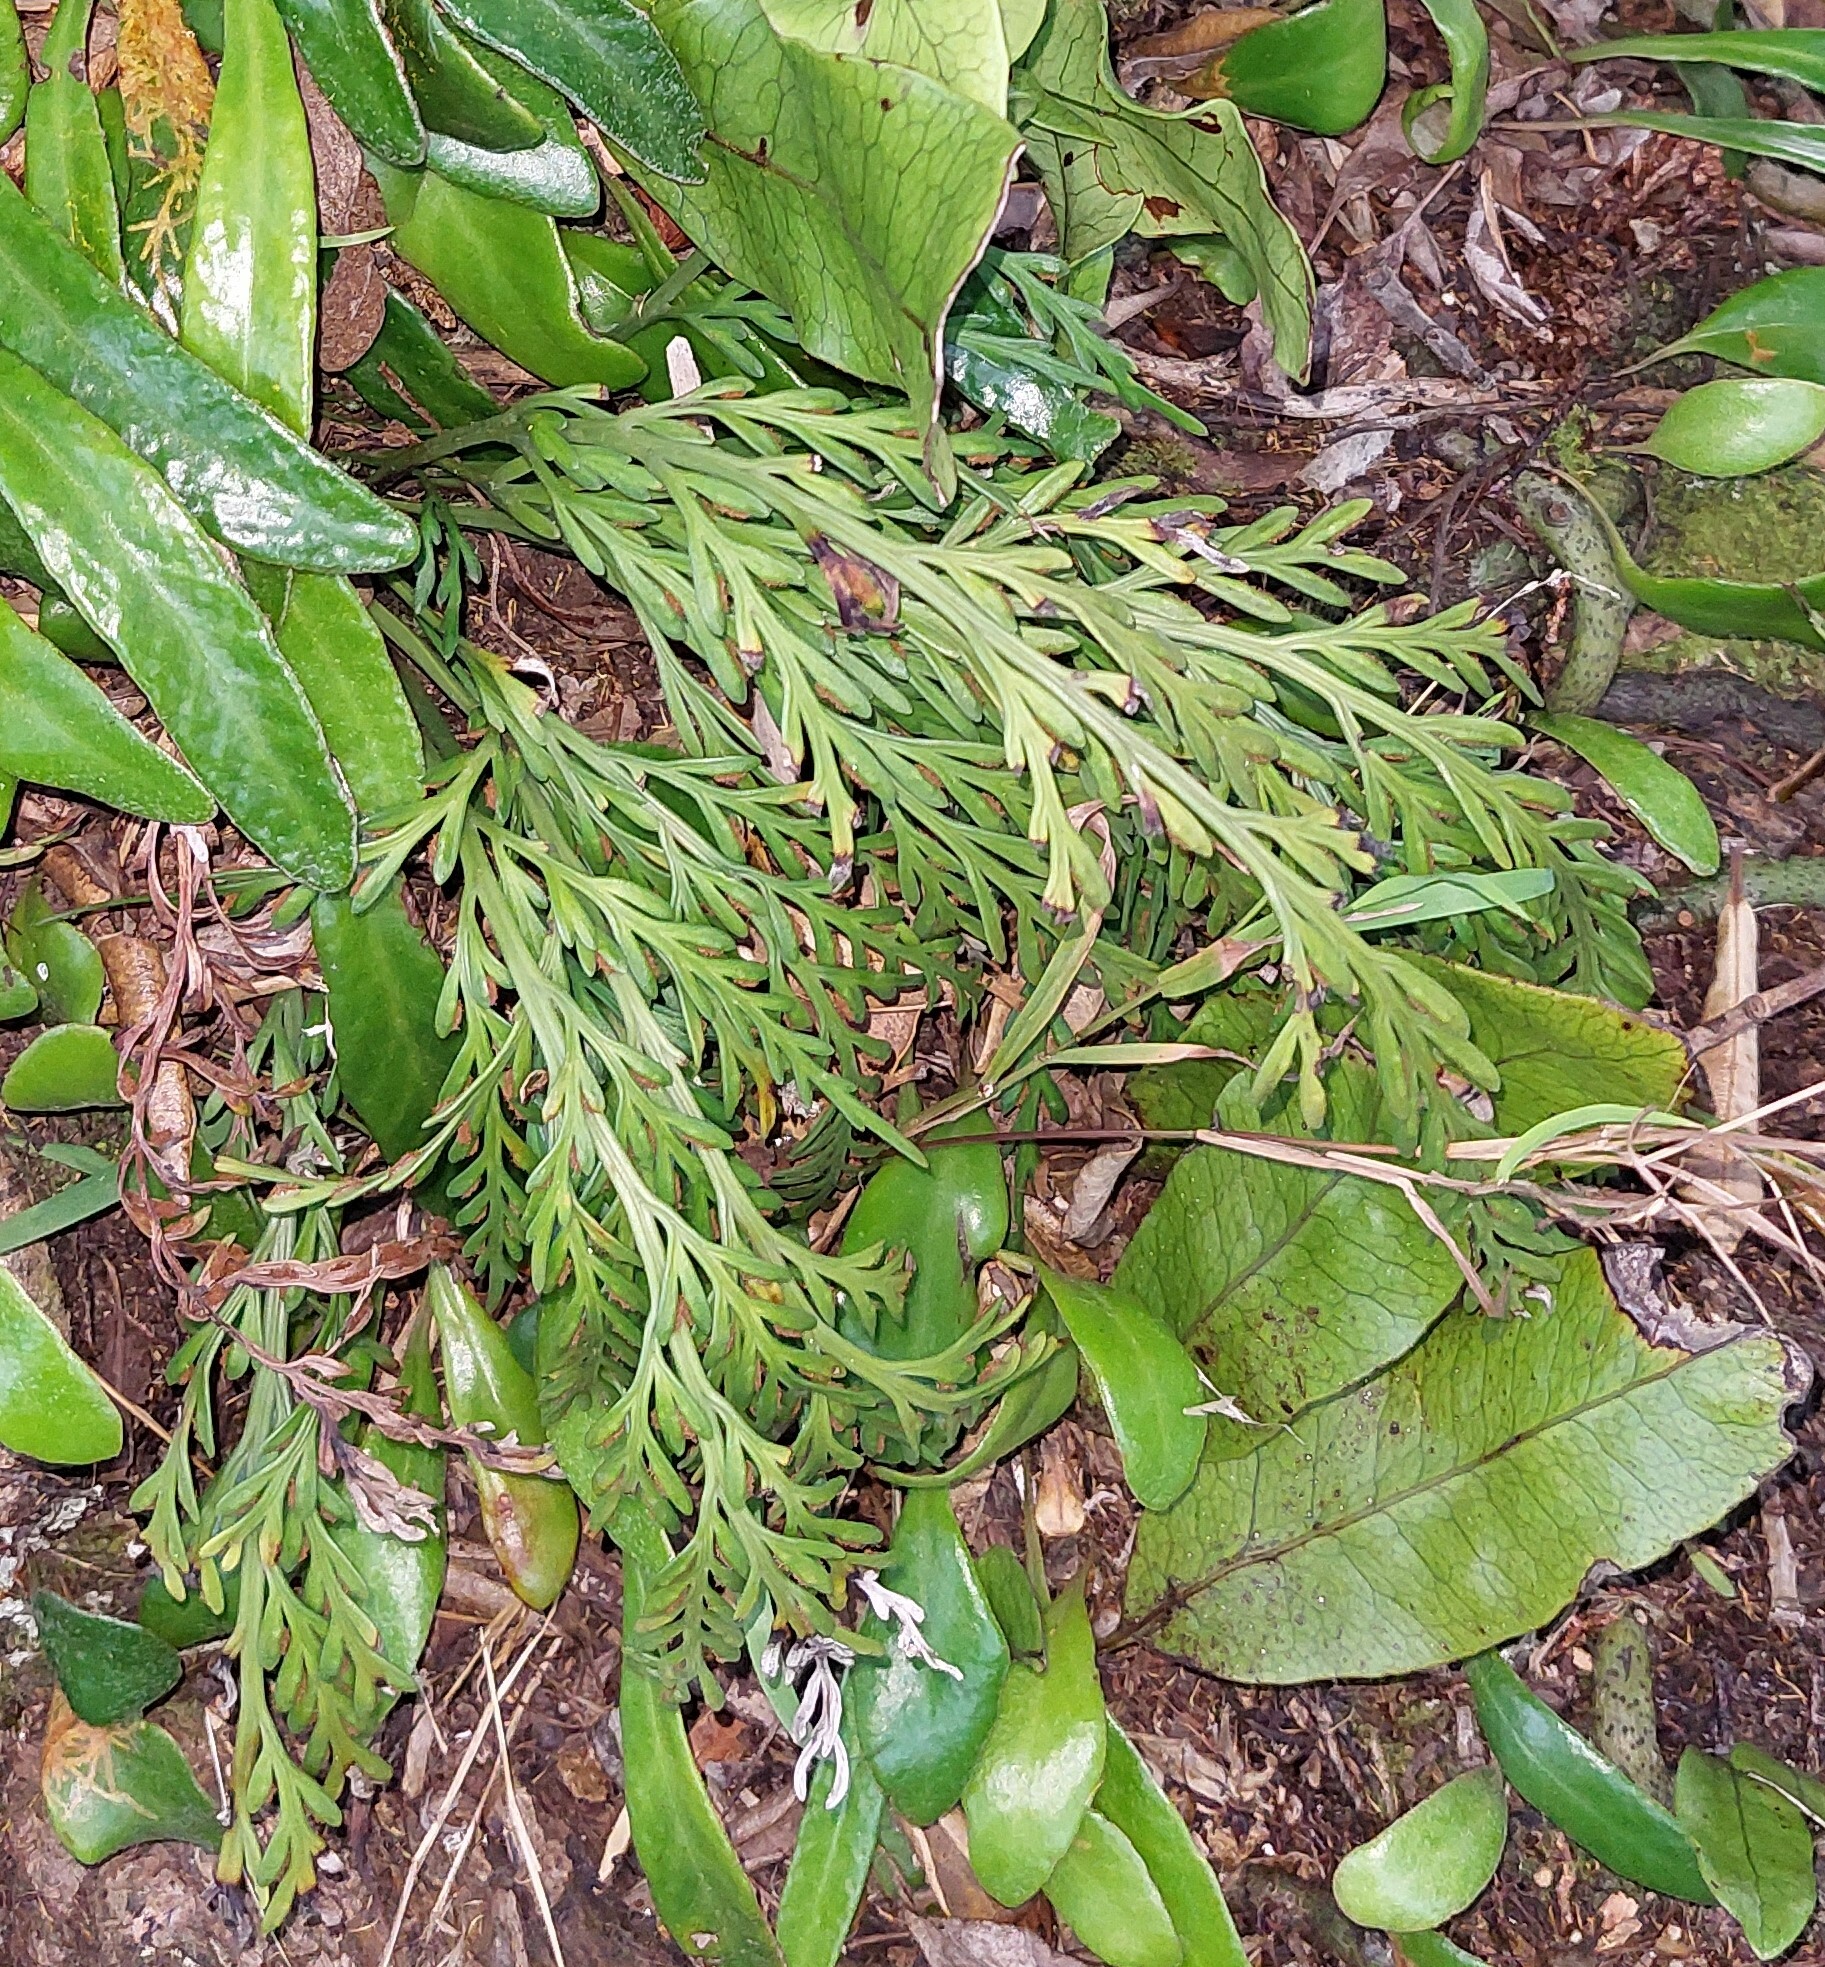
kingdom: Plantae
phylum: Tracheophyta
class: Polypodiopsida
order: Polypodiales
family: Aspleniaceae
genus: Asplenium
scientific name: Asplenium flaccidum
